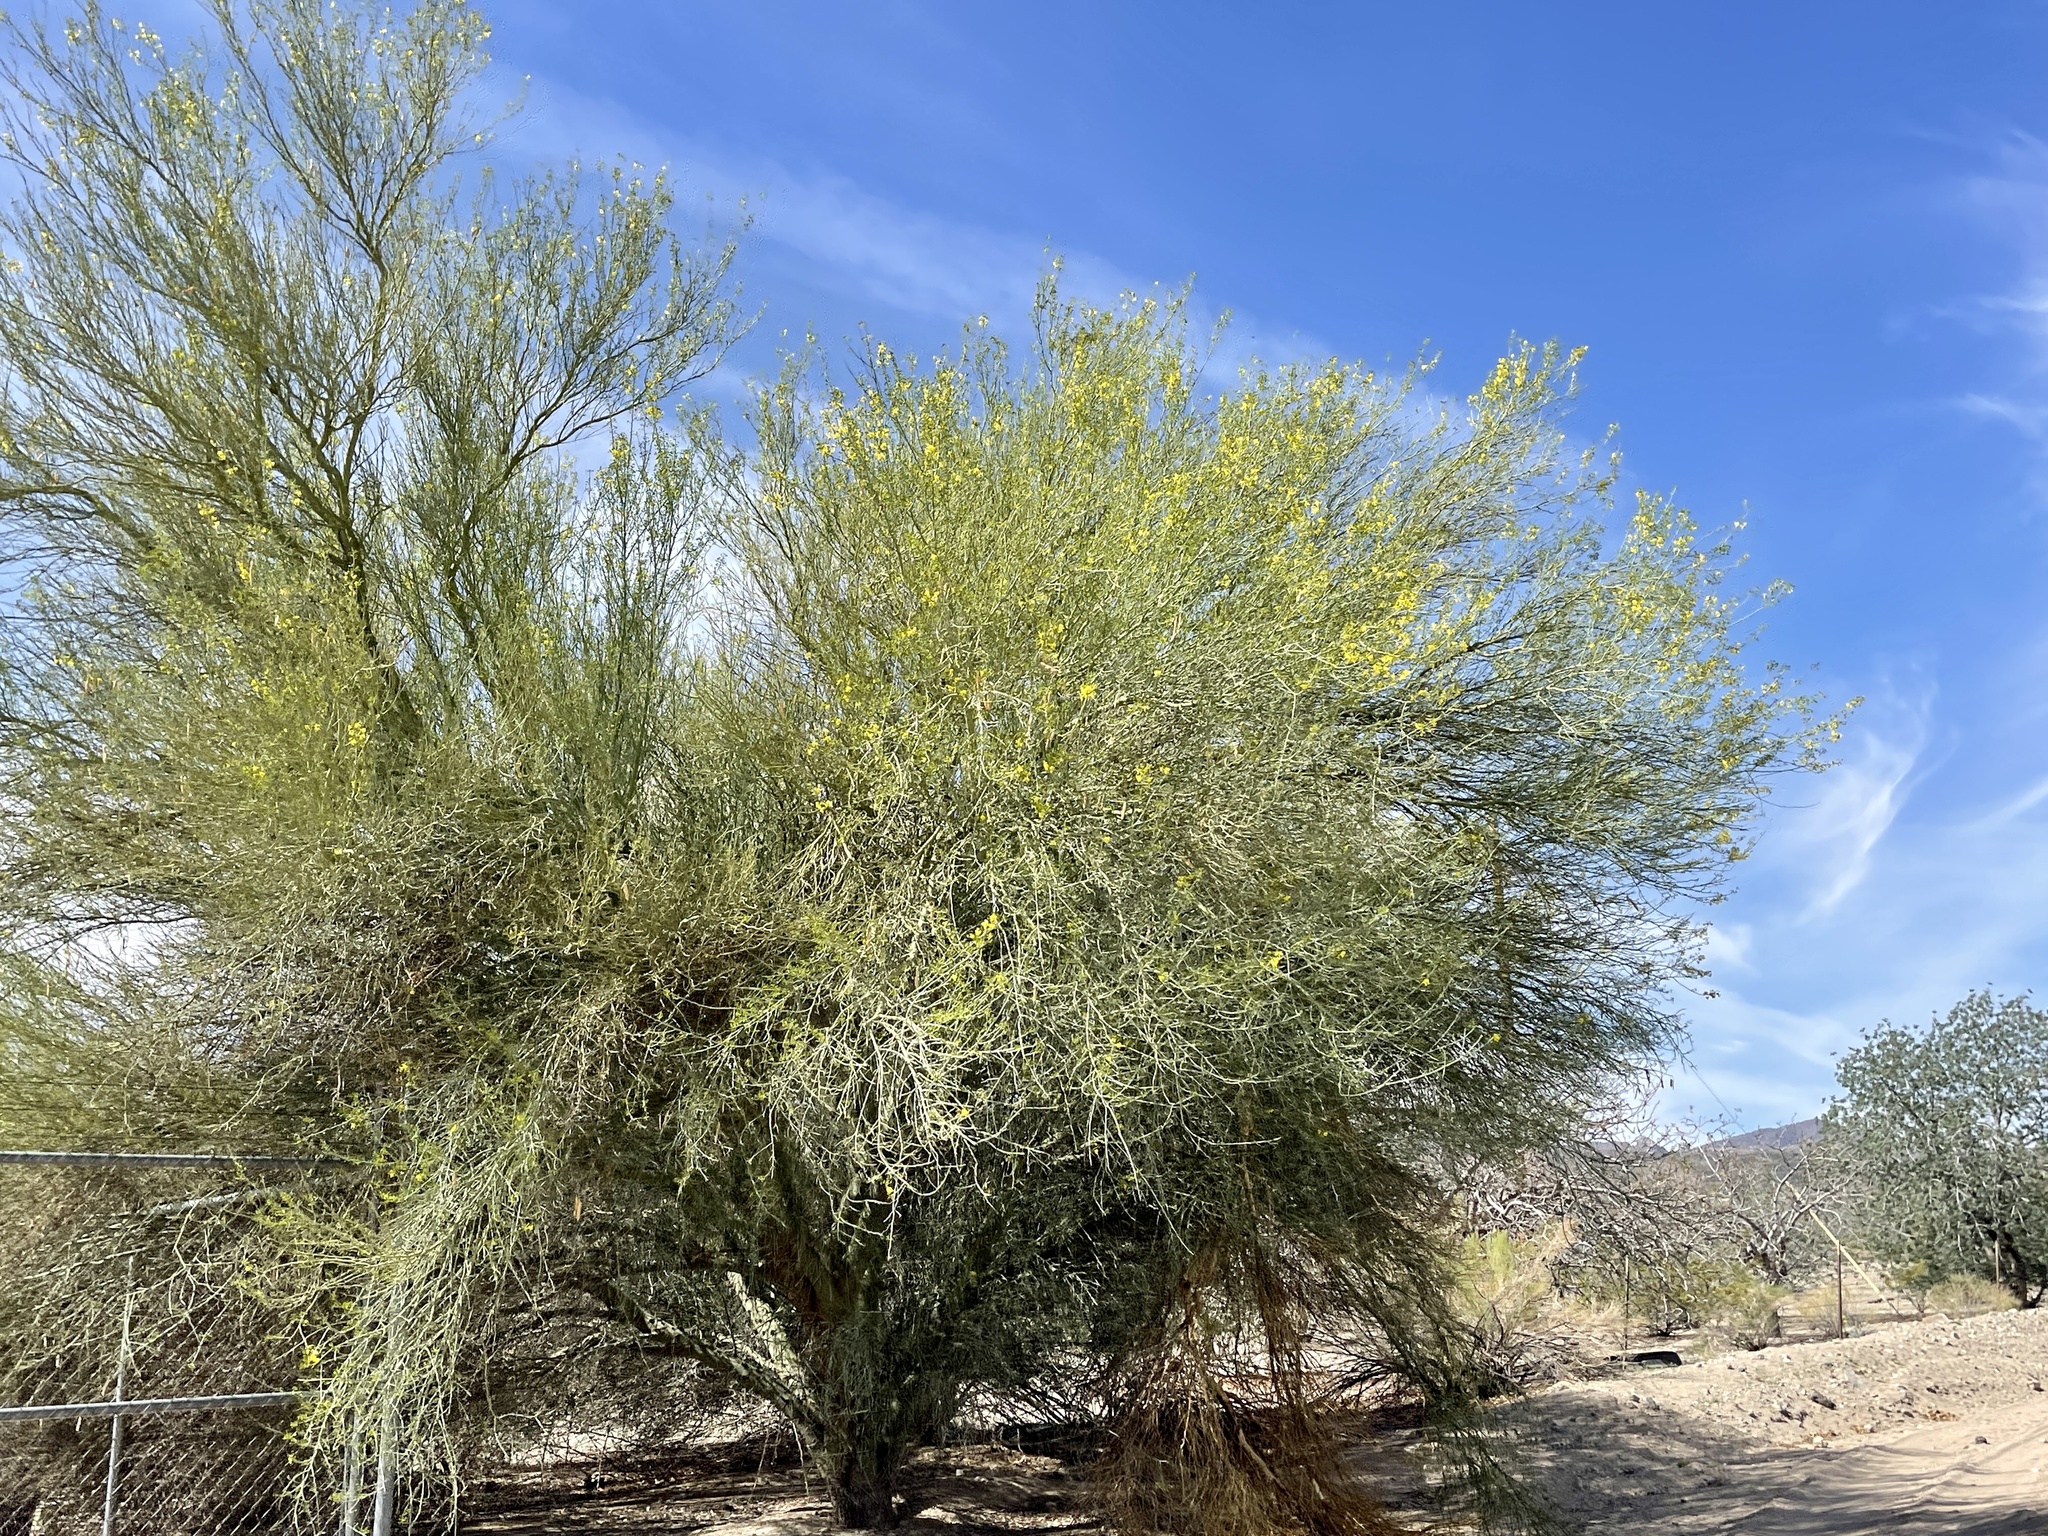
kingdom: Plantae
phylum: Tracheophyta
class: Magnoliopsida
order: Fabales
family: Fabaceae
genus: Parkinsonia
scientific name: Parkinsonia microphylla
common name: Yellow paloverde
